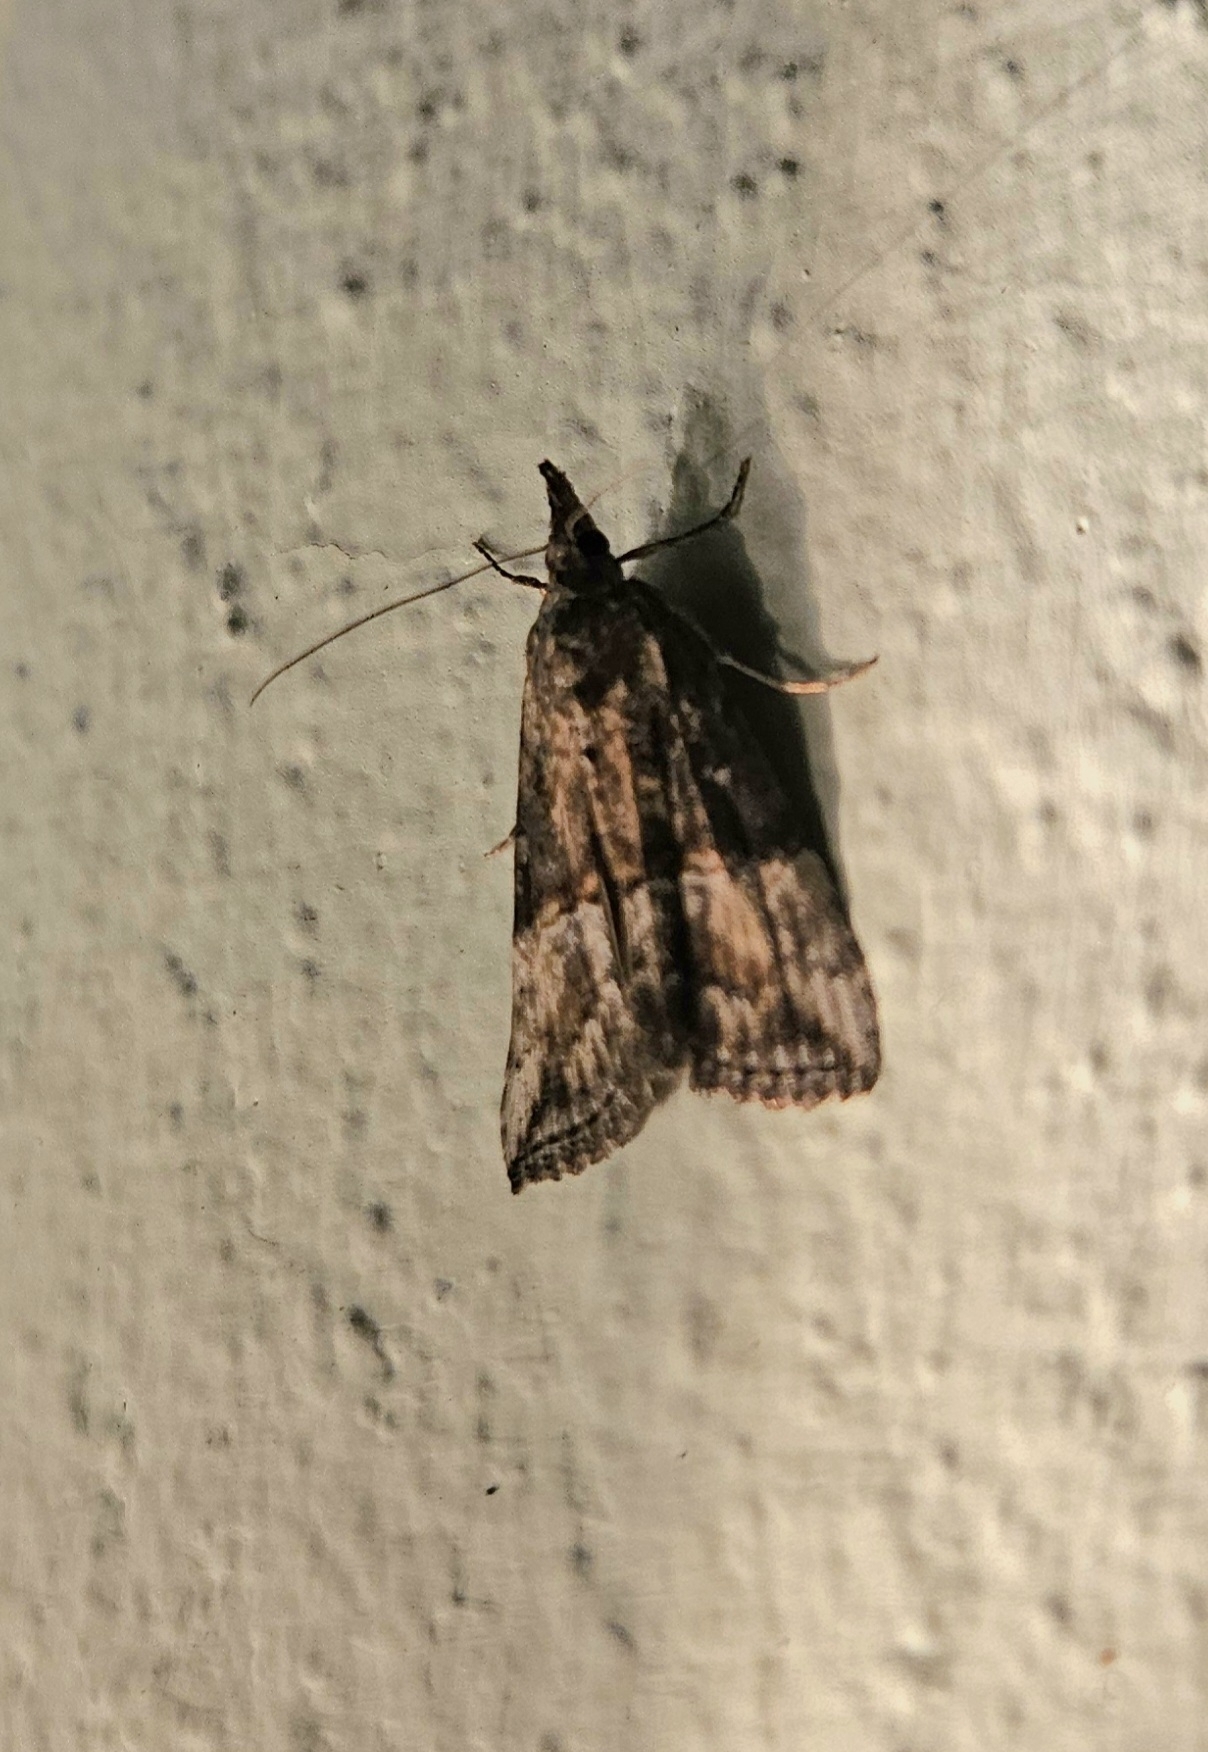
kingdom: Animalia
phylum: Arthropoda
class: Insecta
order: Lepidoptera
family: Erebidae
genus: Hypena
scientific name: Hypena scabra
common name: Green cloverworm
